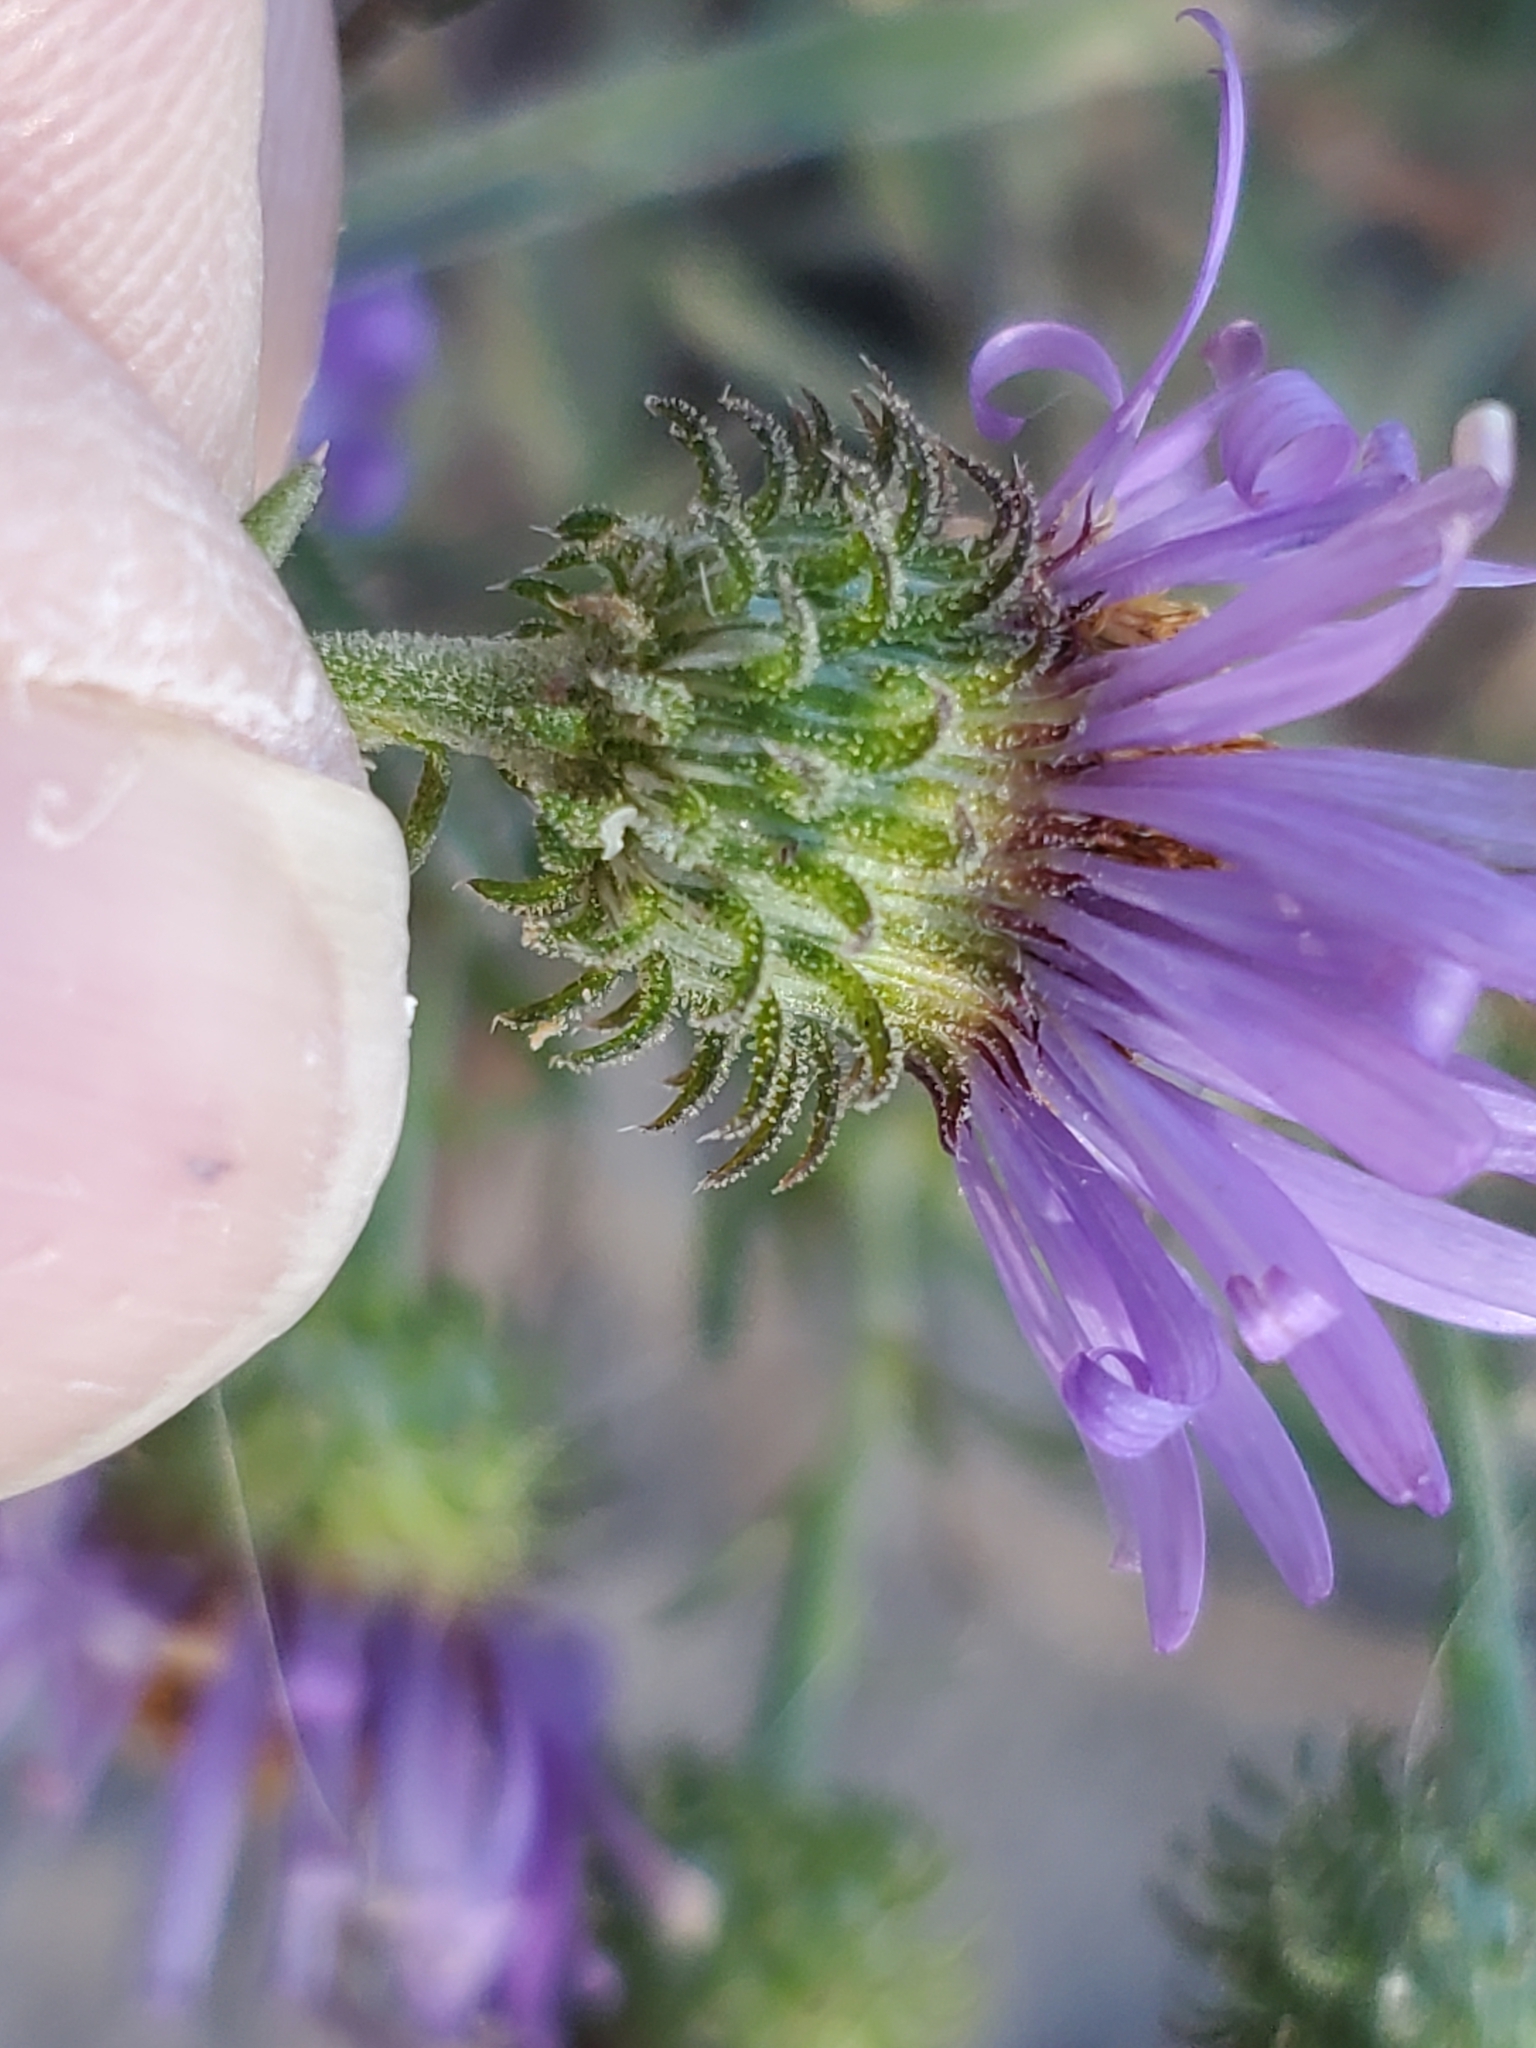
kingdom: Plantae
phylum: Tracheophyta
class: Magnoliopsida
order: Asterales
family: Asteraceae
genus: Dieteria
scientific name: Dieteria canescens
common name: Hoary-aster
